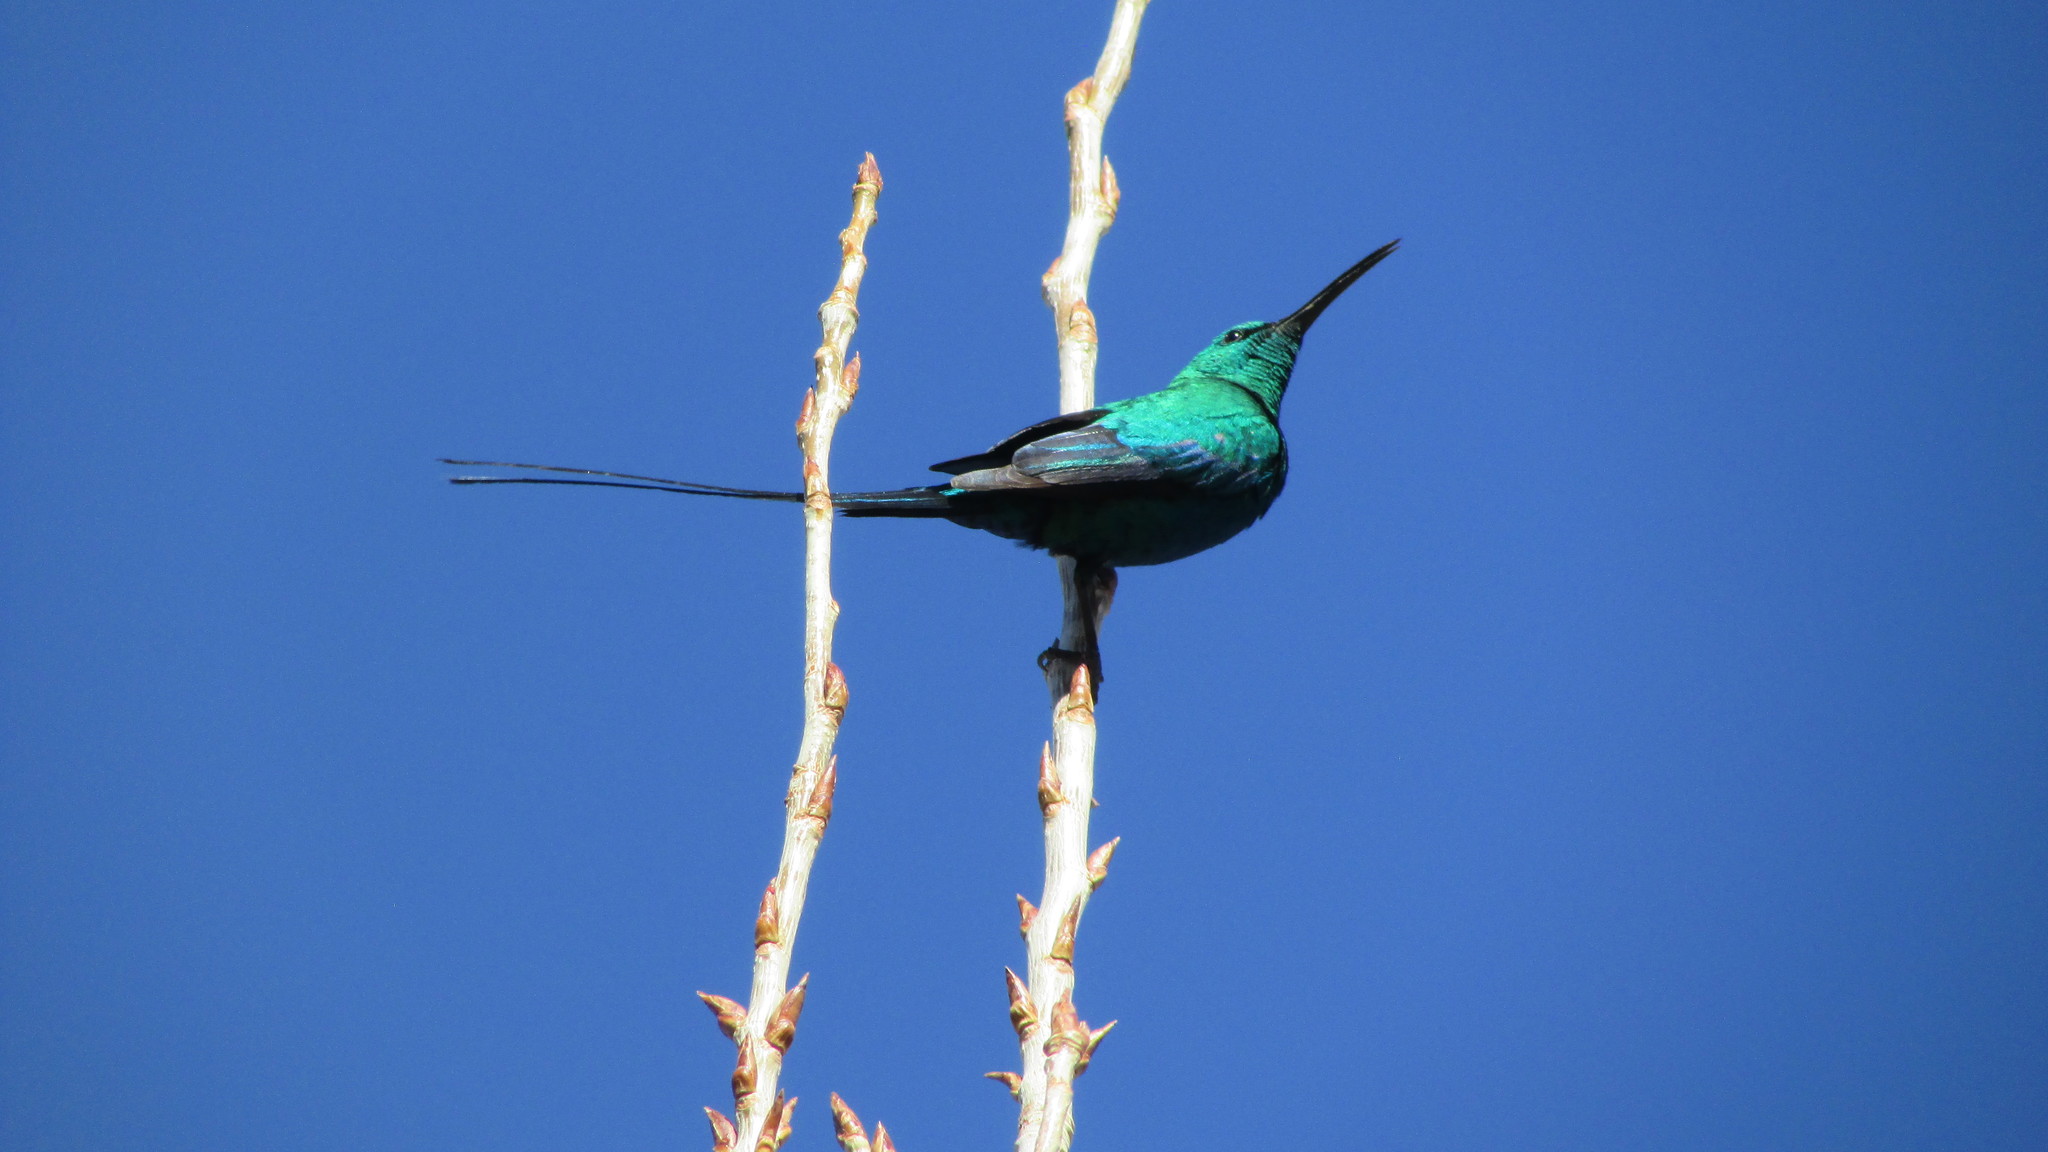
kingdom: Animalia
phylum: Chordata
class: Aves
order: Passeriformes
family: Nectariniidae
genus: Nectarinia
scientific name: Nectarinia famosa
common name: Malachite sunbird
